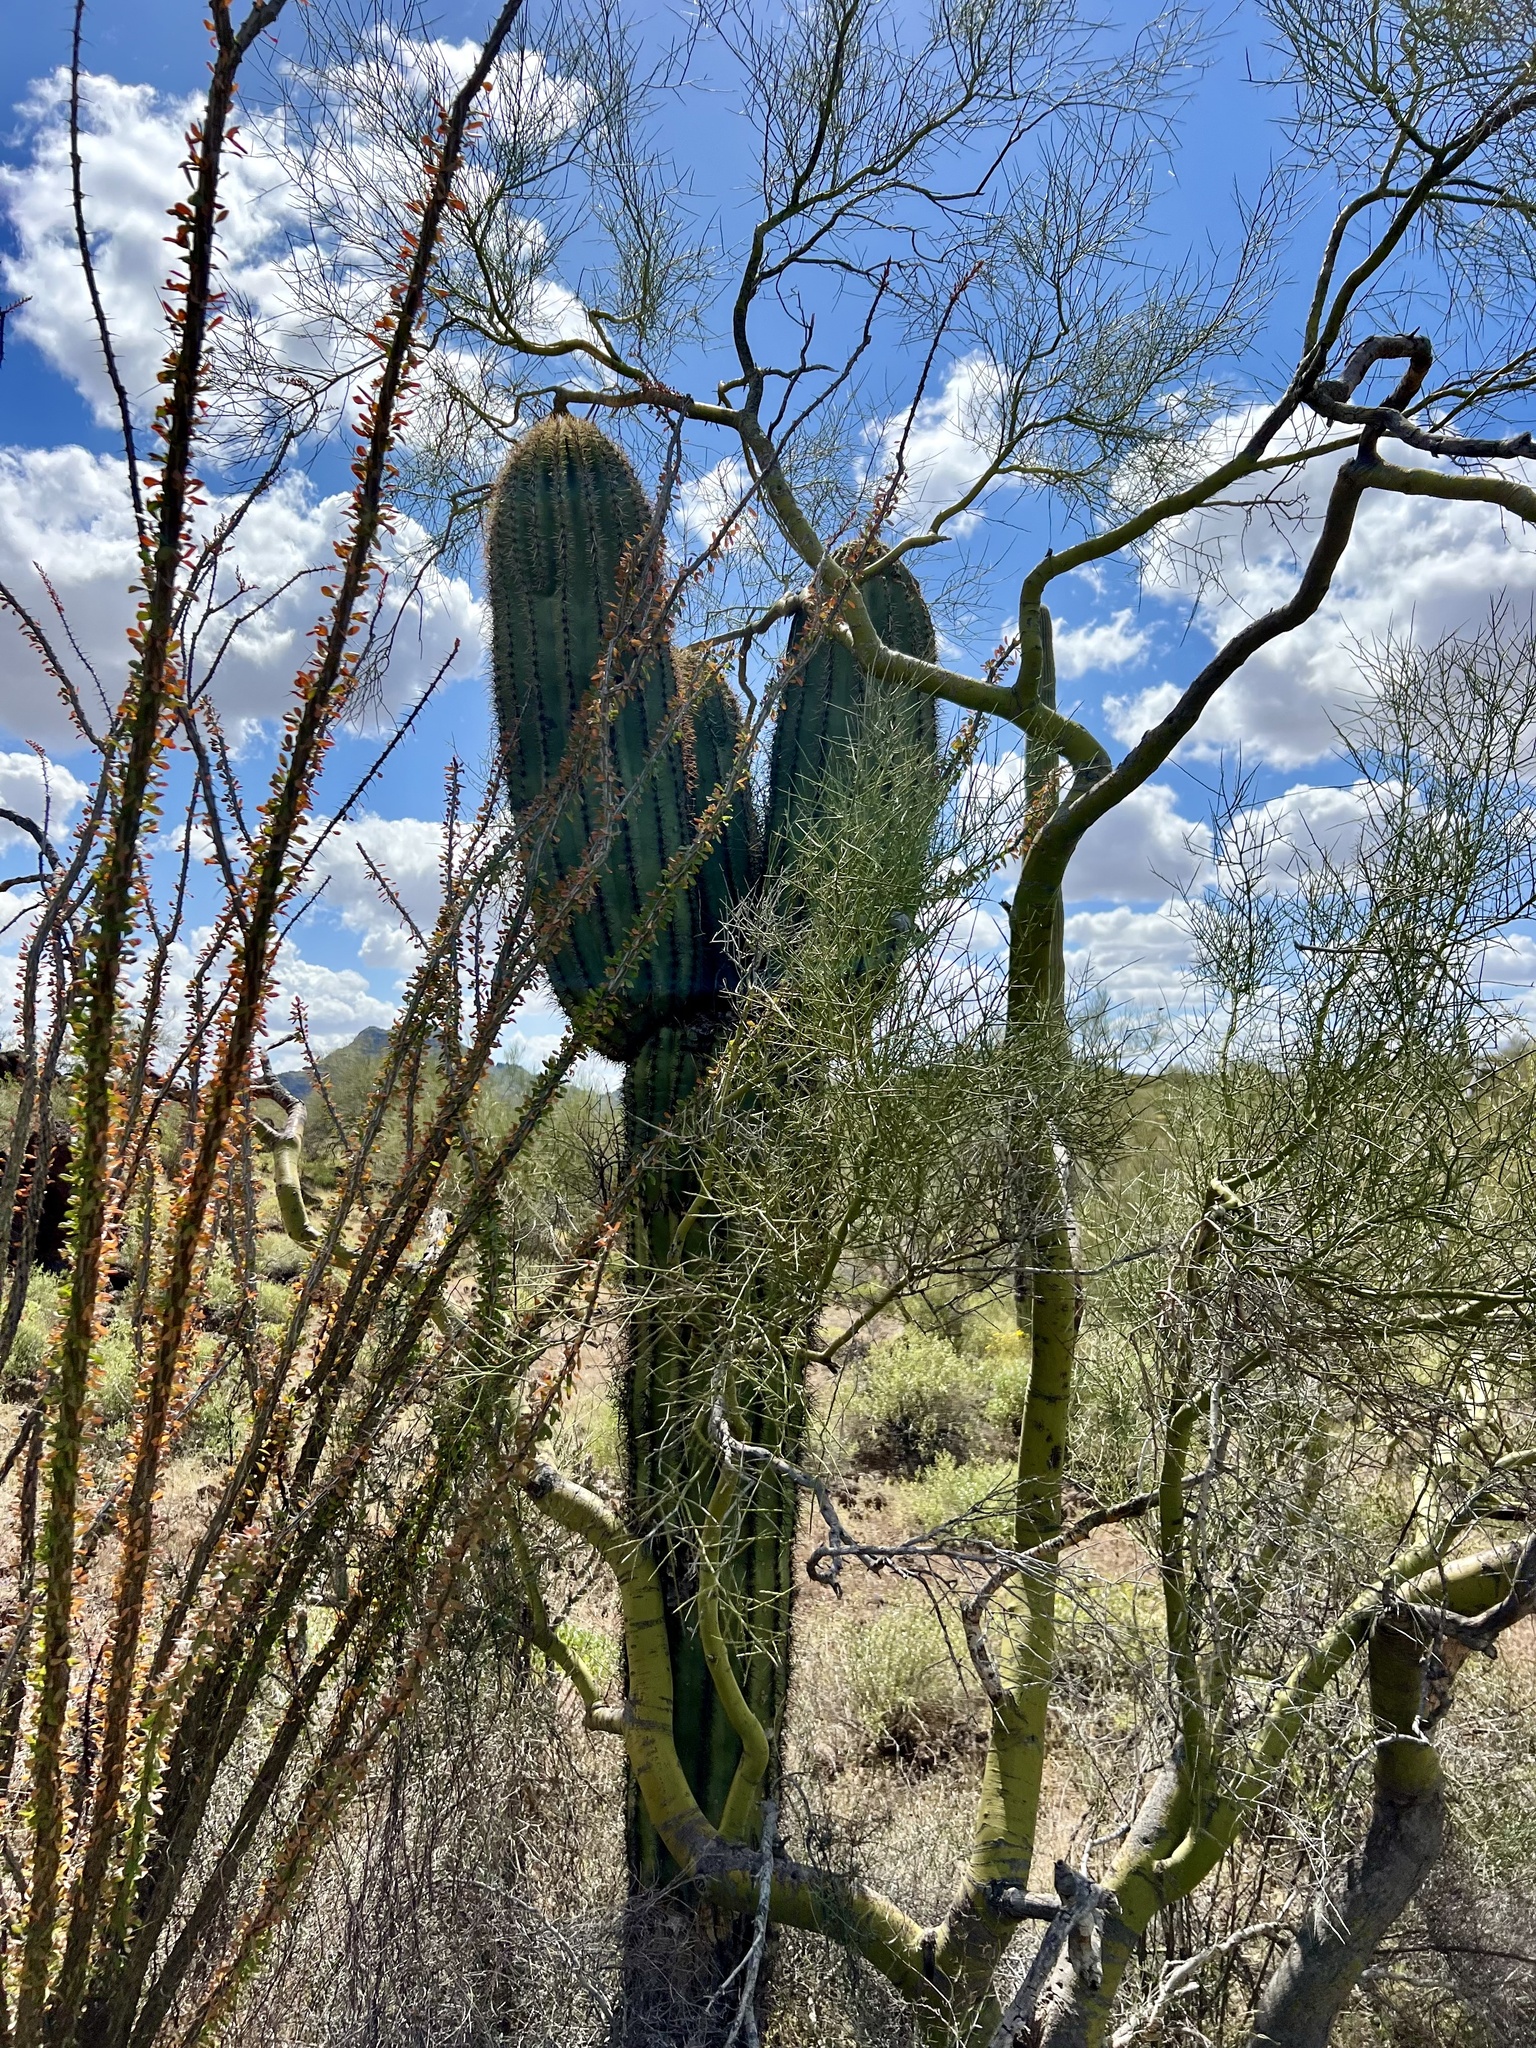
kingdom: Plantae
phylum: Tracheophyta
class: Magnoliopsida
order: Caryophyllales
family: Cactaceae
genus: Carnegiea
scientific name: Carnegiea gigantea
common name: Saguaro
